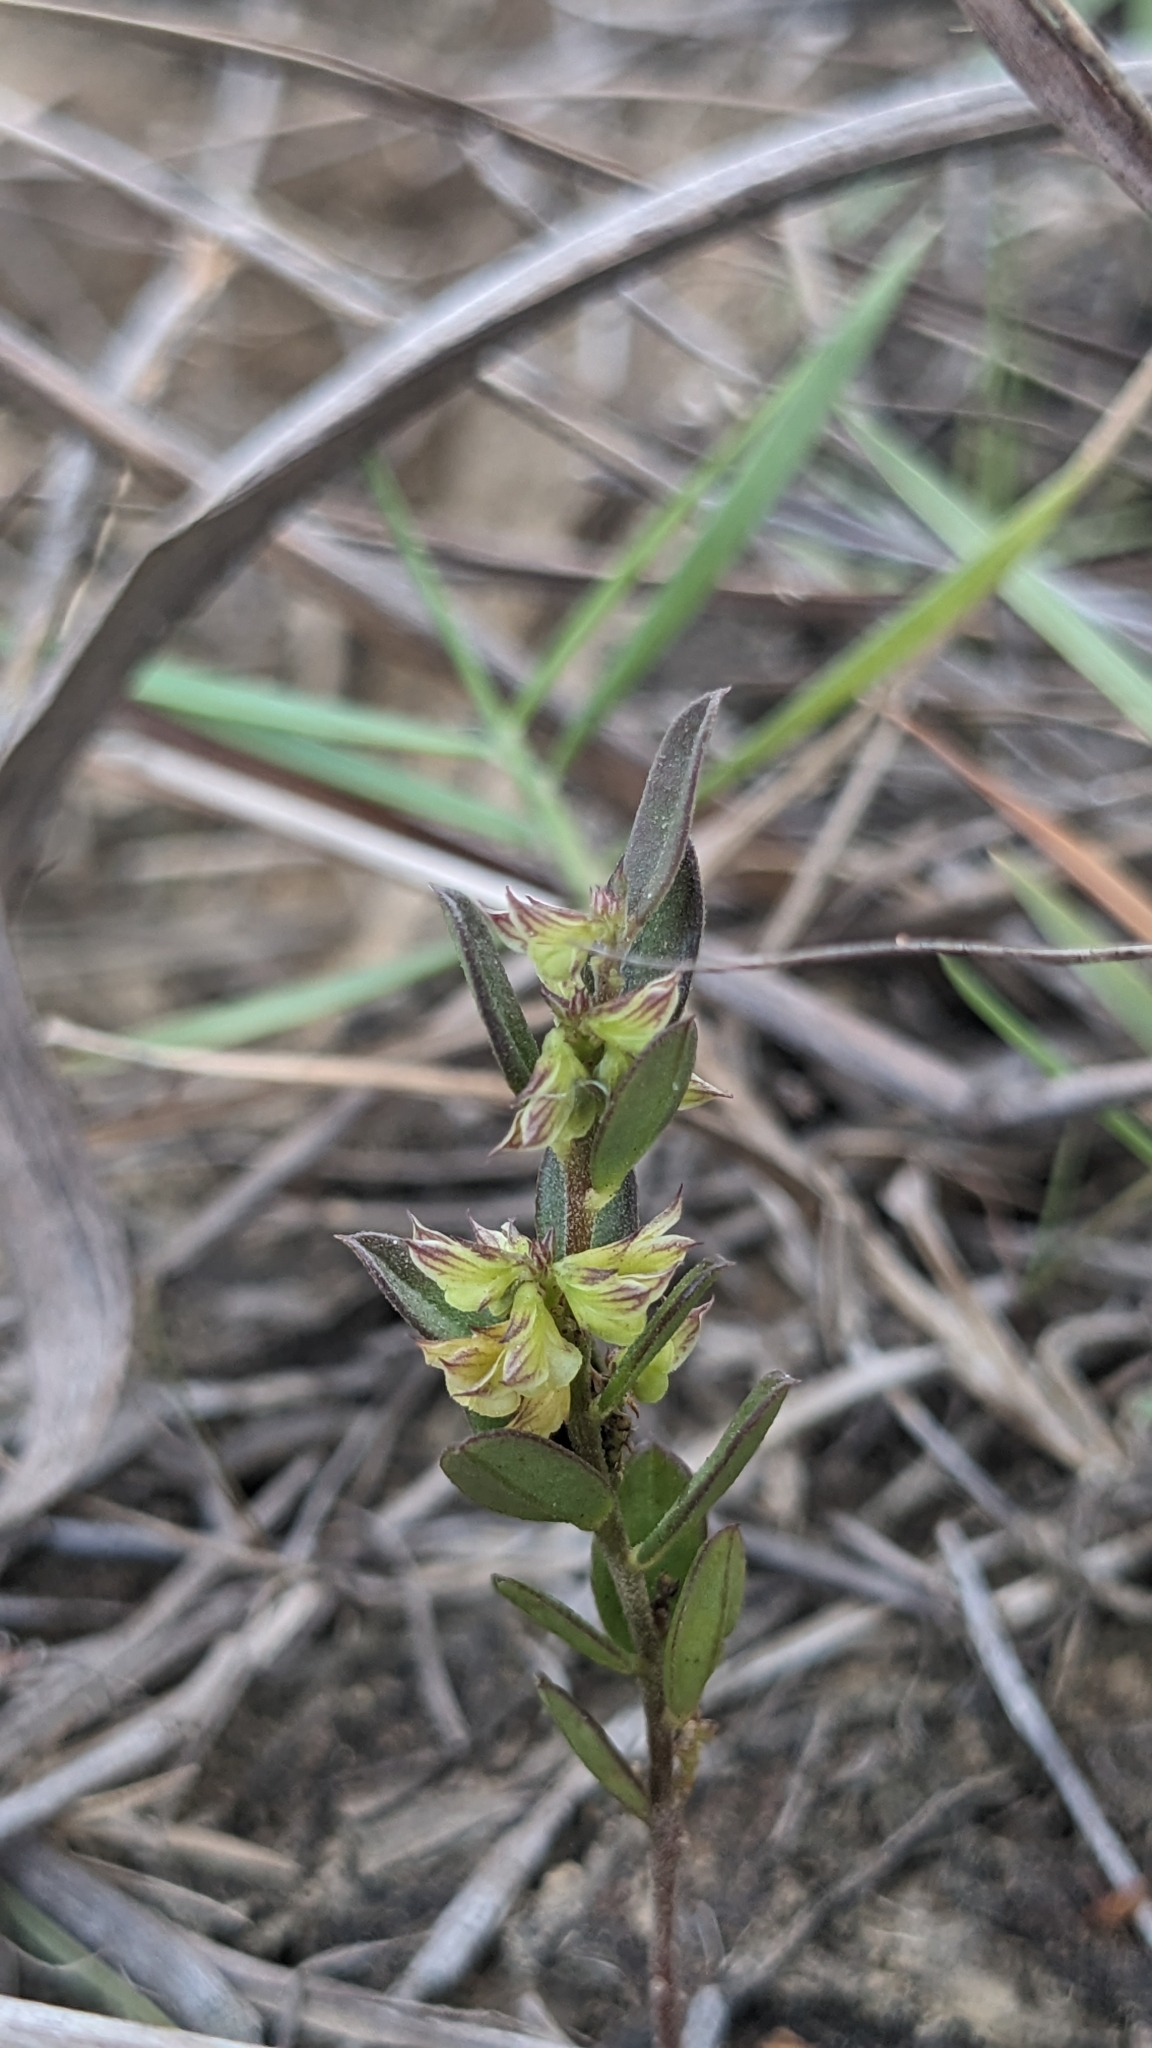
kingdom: Plantae
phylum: Tracheophyta
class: Magnoliopsida
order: Fabales
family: Polygalaceae
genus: Polygala
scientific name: Polygala arvensis
